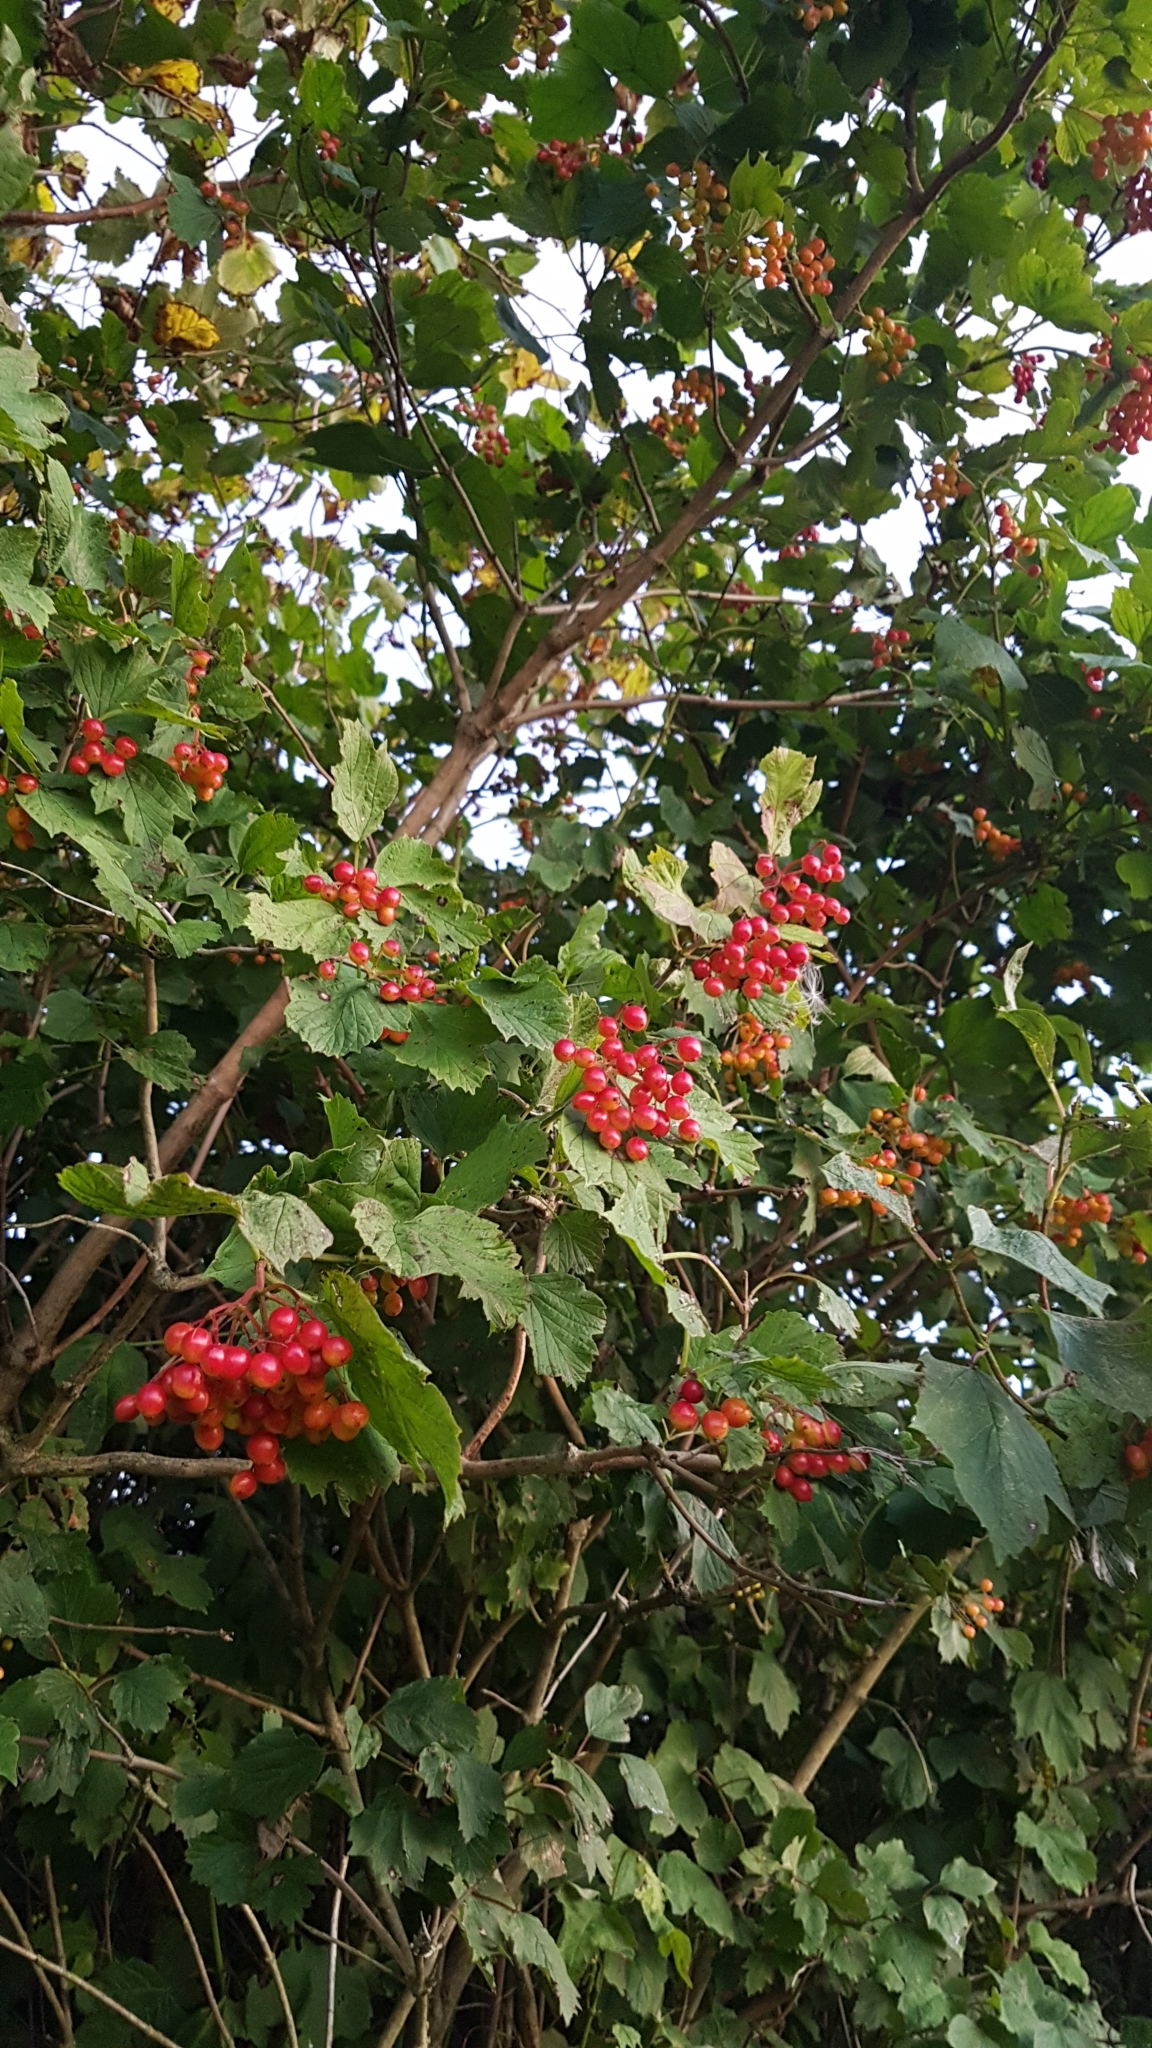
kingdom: Plantae
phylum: Tracheophyta
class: Magnoliopsida
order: Dipsacales
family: Viburnaceae
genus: Viburnum
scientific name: Viburnum opulus
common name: Guelder-rose
